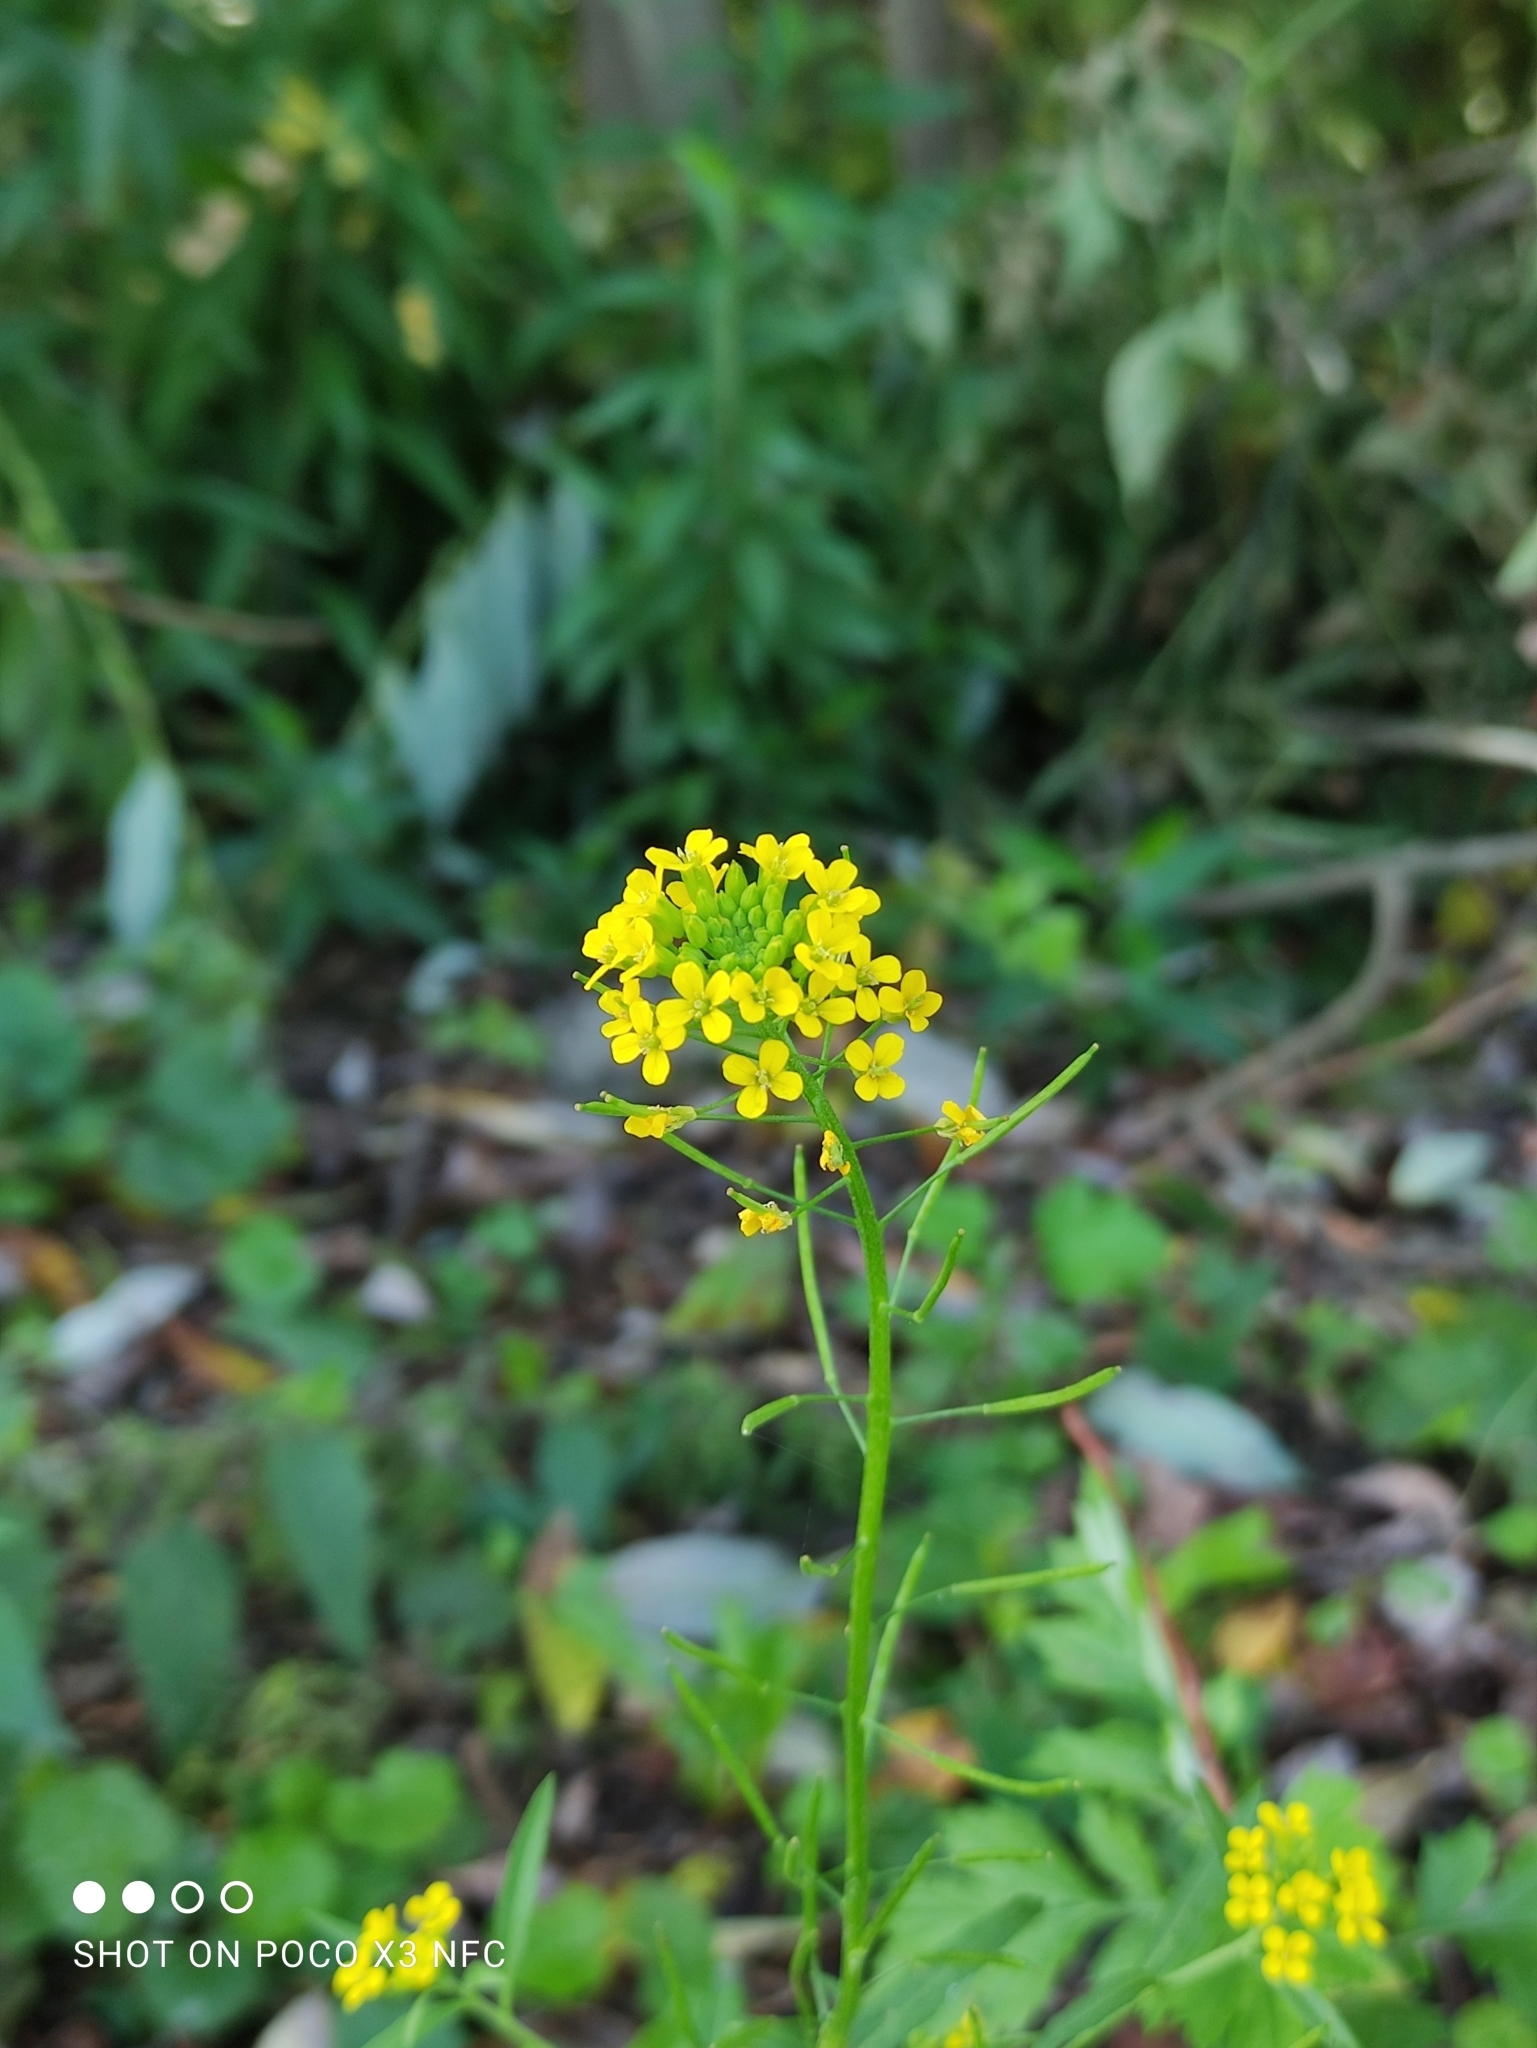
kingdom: Plantae
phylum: Tracheophyta
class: Magnoliopsida
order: Brassicales
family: Brassicaceae
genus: Erysimum
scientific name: Erysimum cheiranthoides
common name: Treacle mustard
